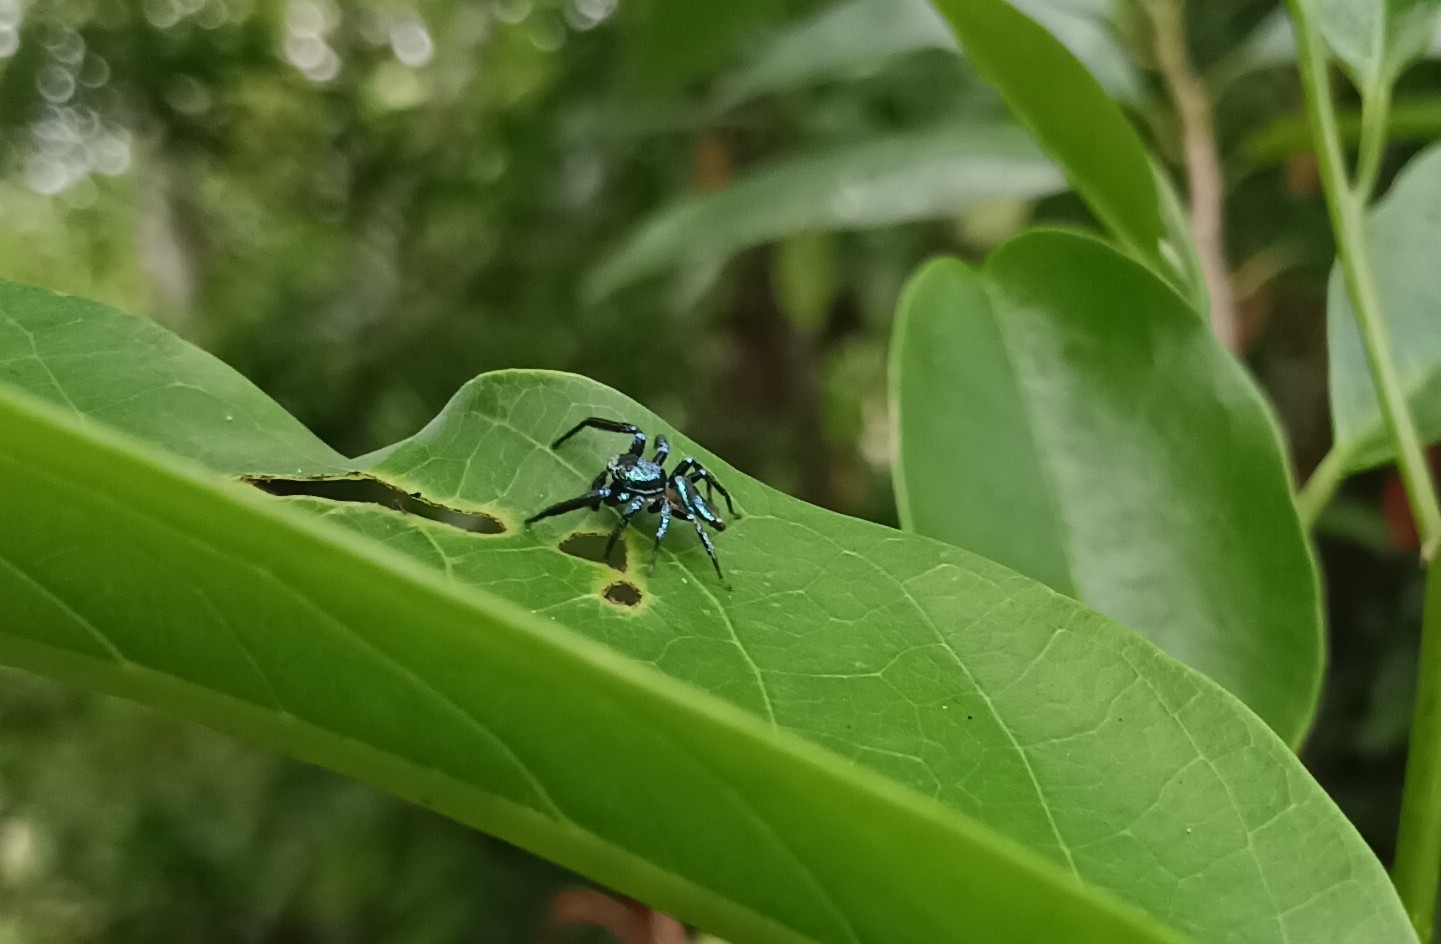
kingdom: Animalia
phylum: Arthropoda
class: Arachnida
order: Araneae
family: Salticidae
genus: Thiania
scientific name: Thiania bhamoensis
